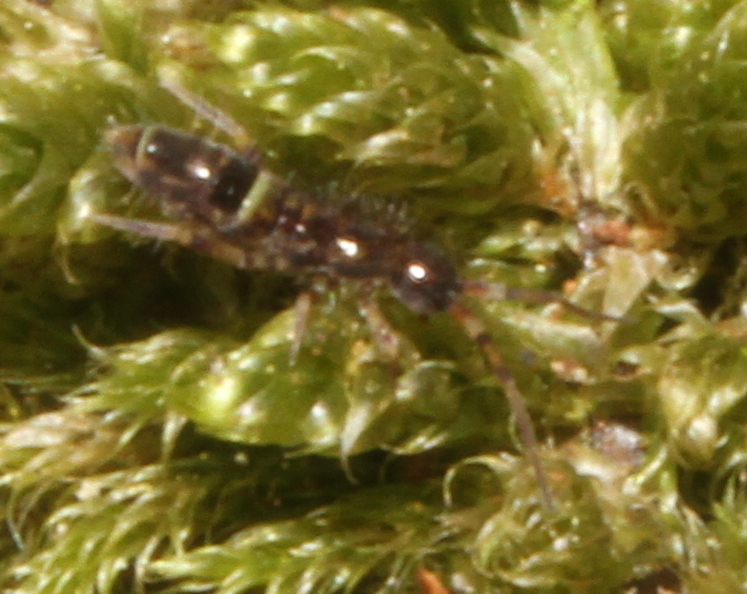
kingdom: Animalia
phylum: Arthropoda
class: Collembola
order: Entomobryomorpha
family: Orchesellidae
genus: Orchesella
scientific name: Orchesella cincta
